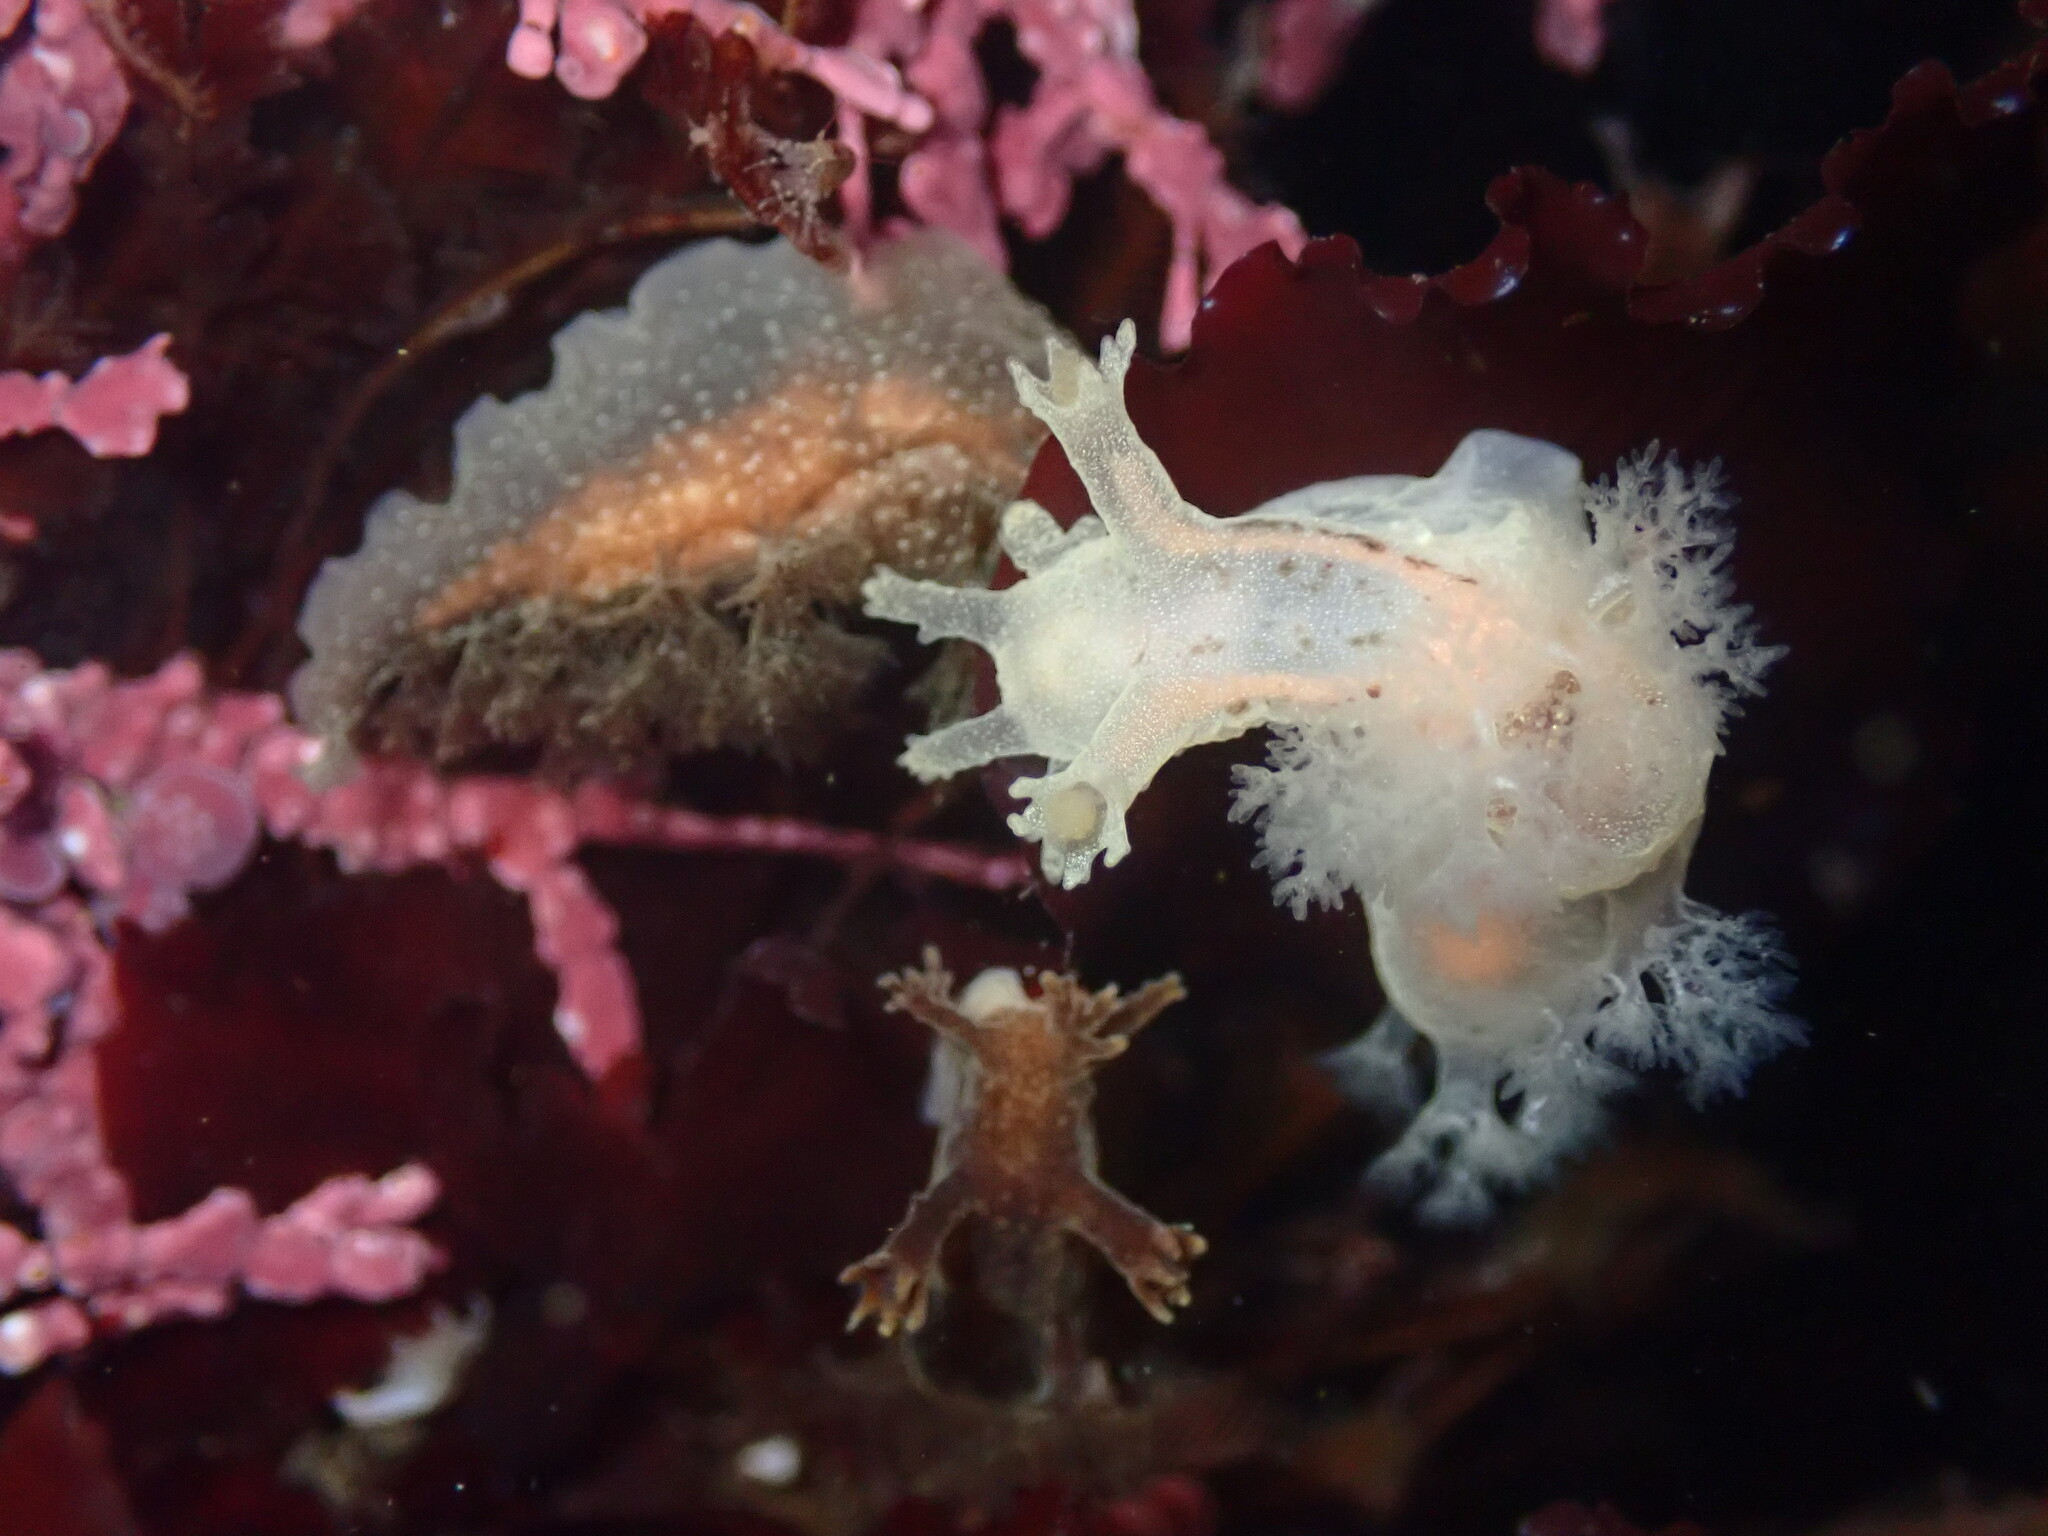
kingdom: Animalia
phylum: Mollusca
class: Gastropoda
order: Nudibranchia
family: Dendronotidae
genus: Dendronotus
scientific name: Dendronotus subramosus
